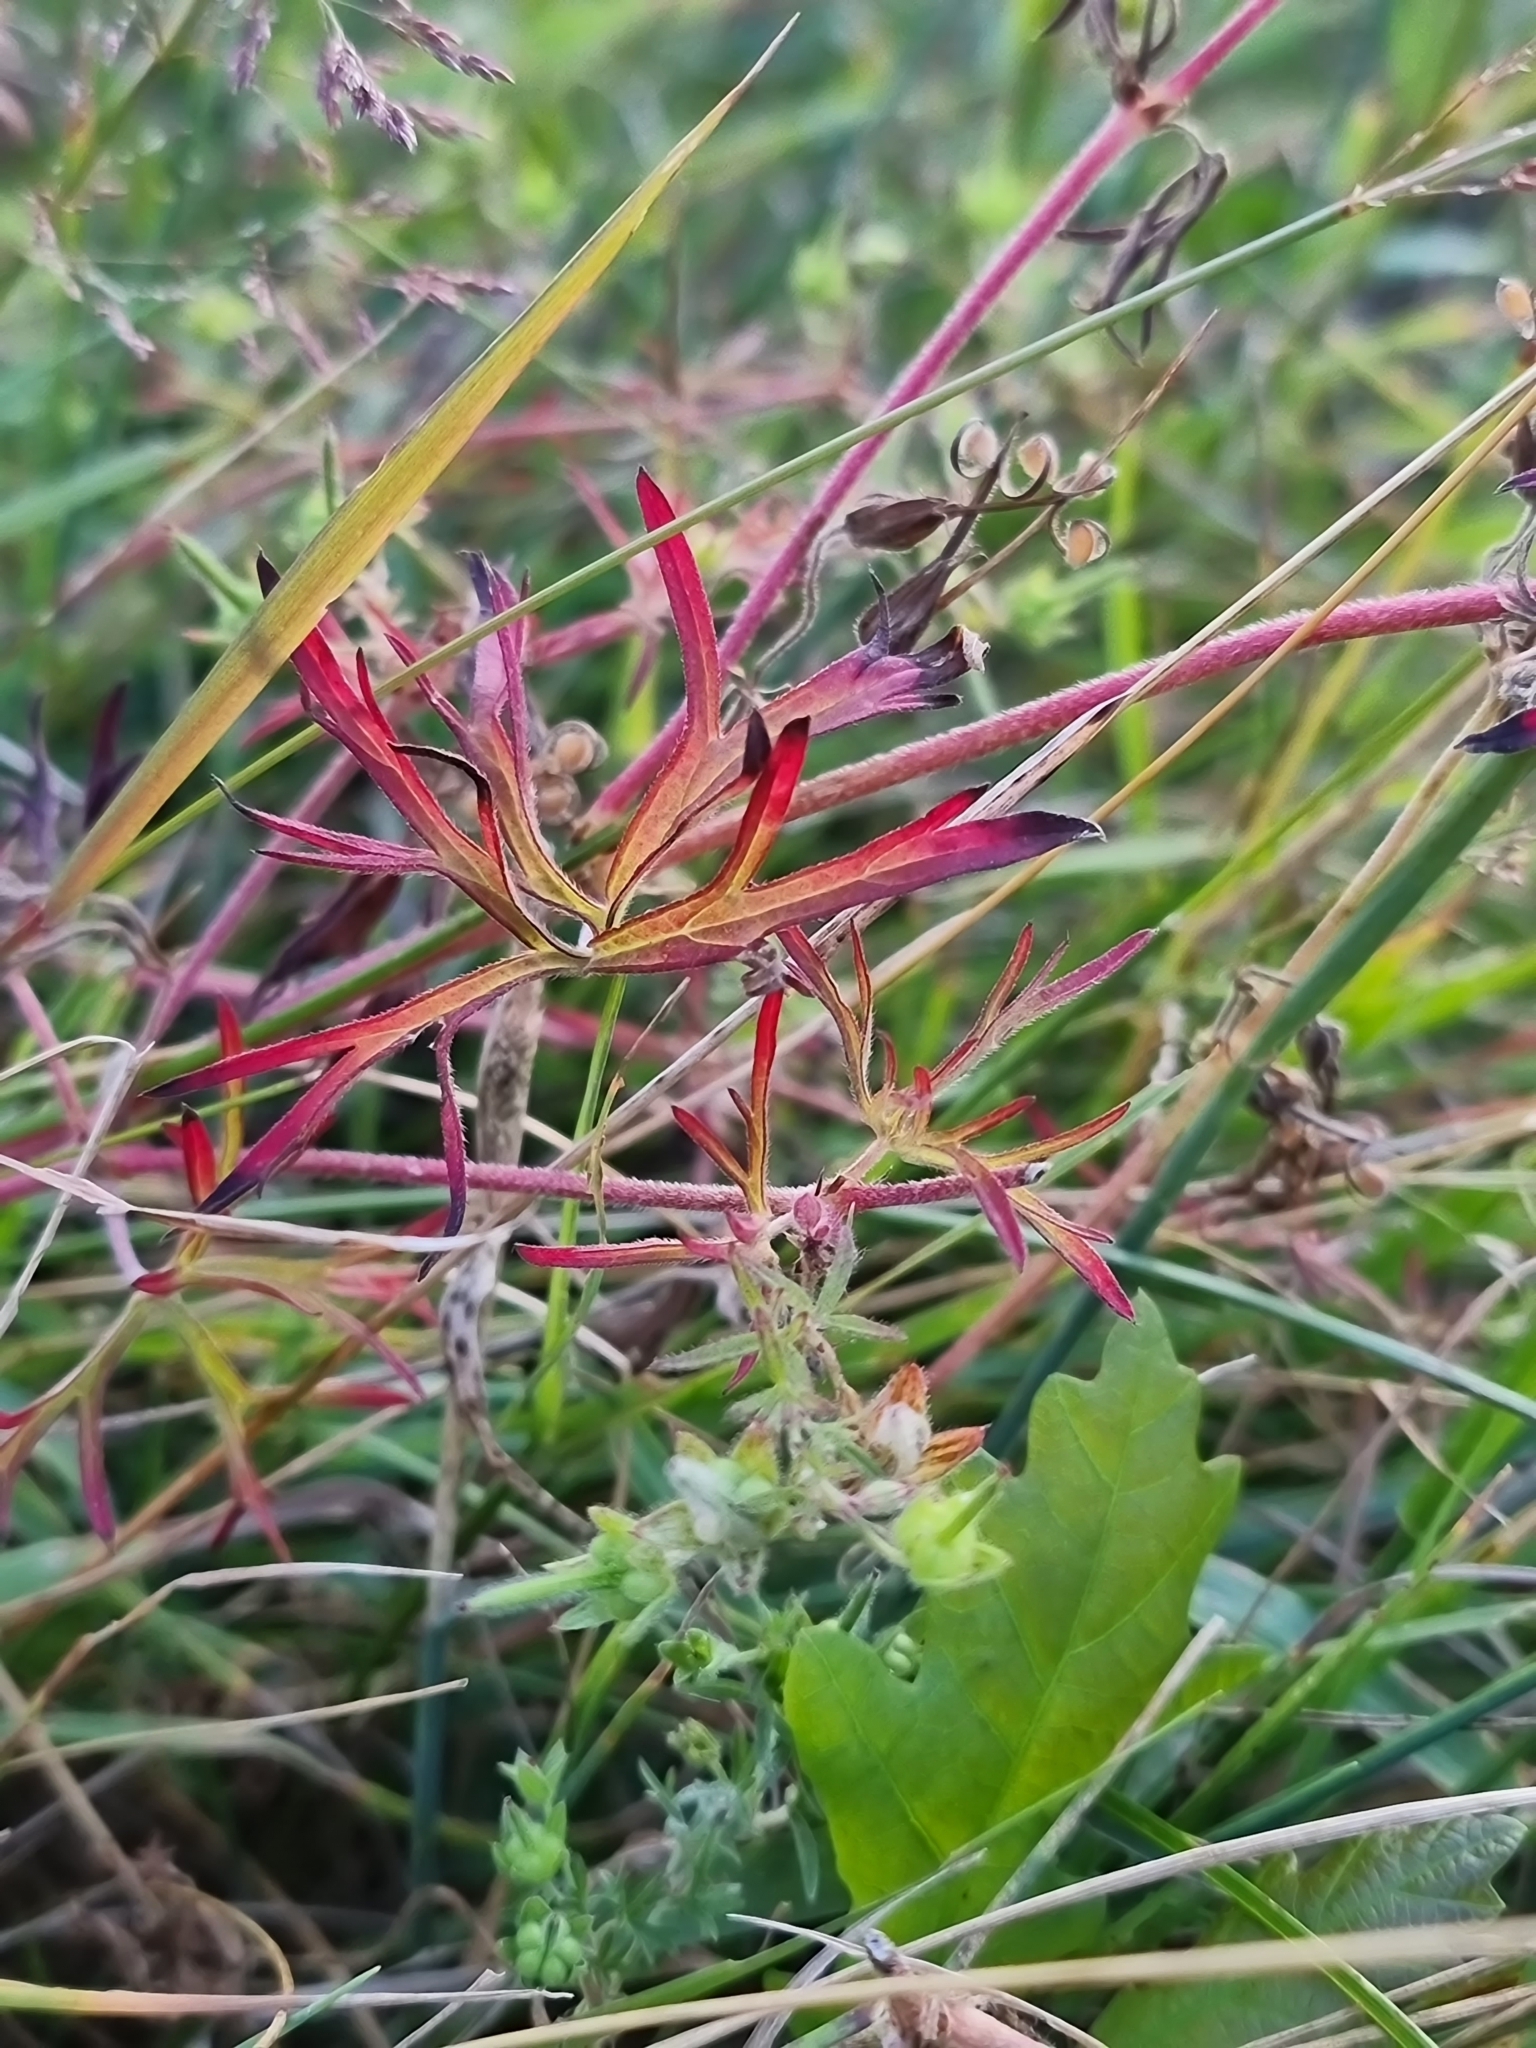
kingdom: Plantae
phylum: Tracheophyta
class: Magnoliopsida
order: Geraniales
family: Geraniaceae
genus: Geranium
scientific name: Geranium dissectum
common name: Cut-leaved crane's-bill
